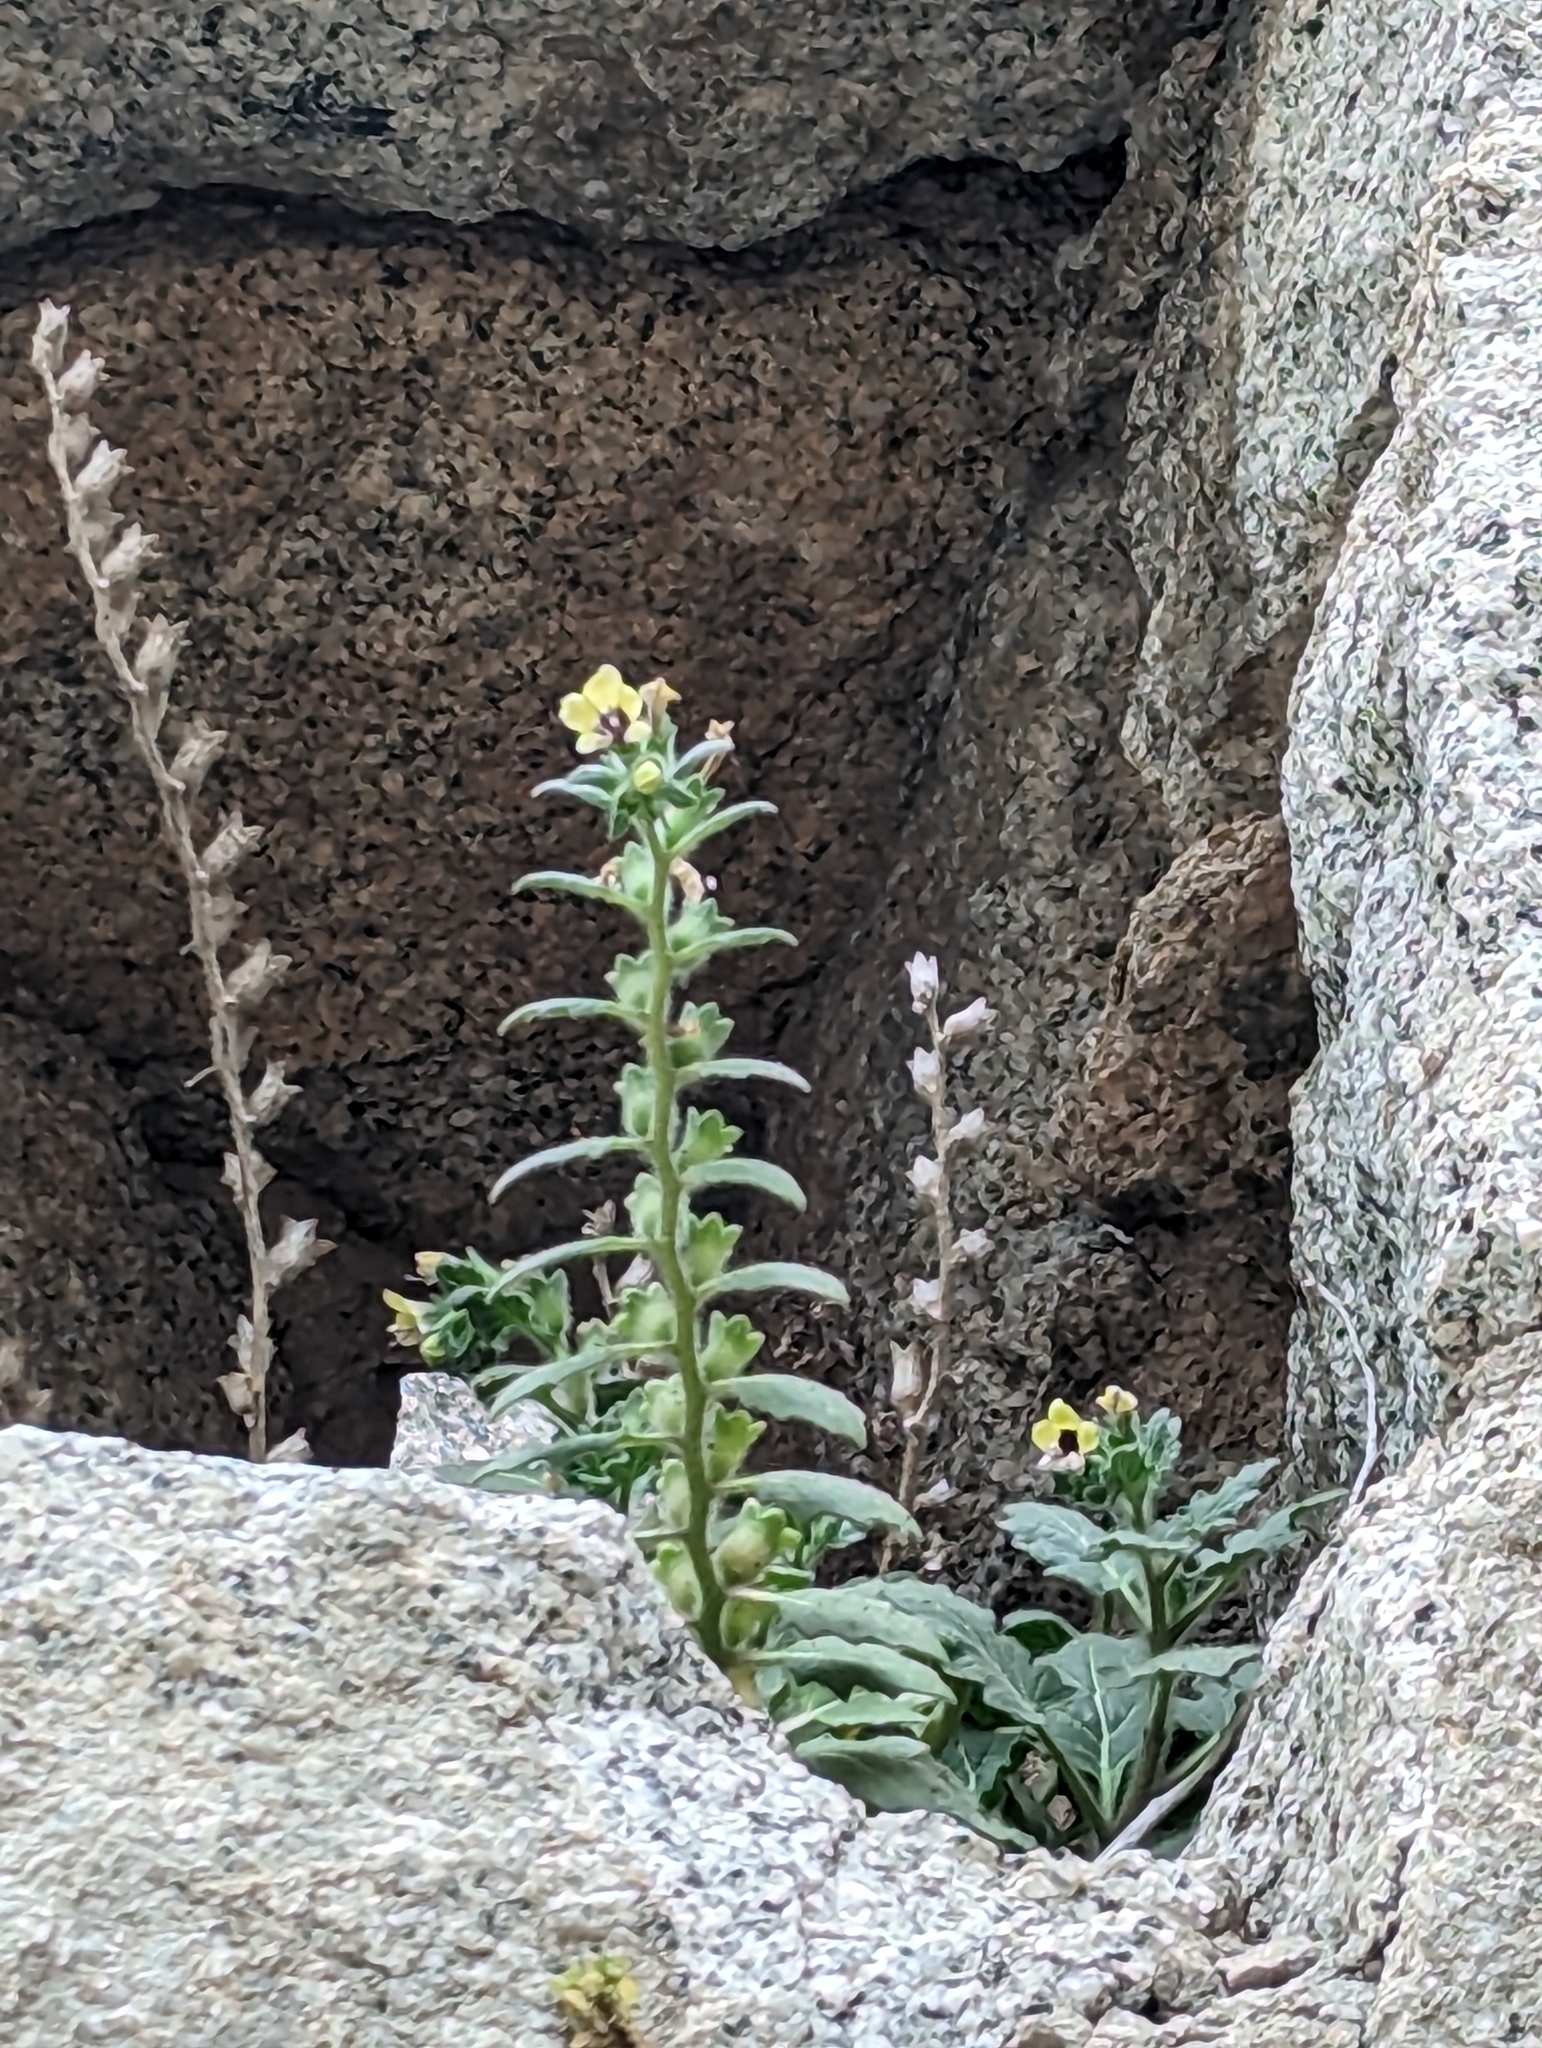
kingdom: Plantae
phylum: Tracheophyta
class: Magnoliopsida
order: Solanales
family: Solanaceae
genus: Hyoscyamus
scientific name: Hyoscyamus albus
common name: White henbane
